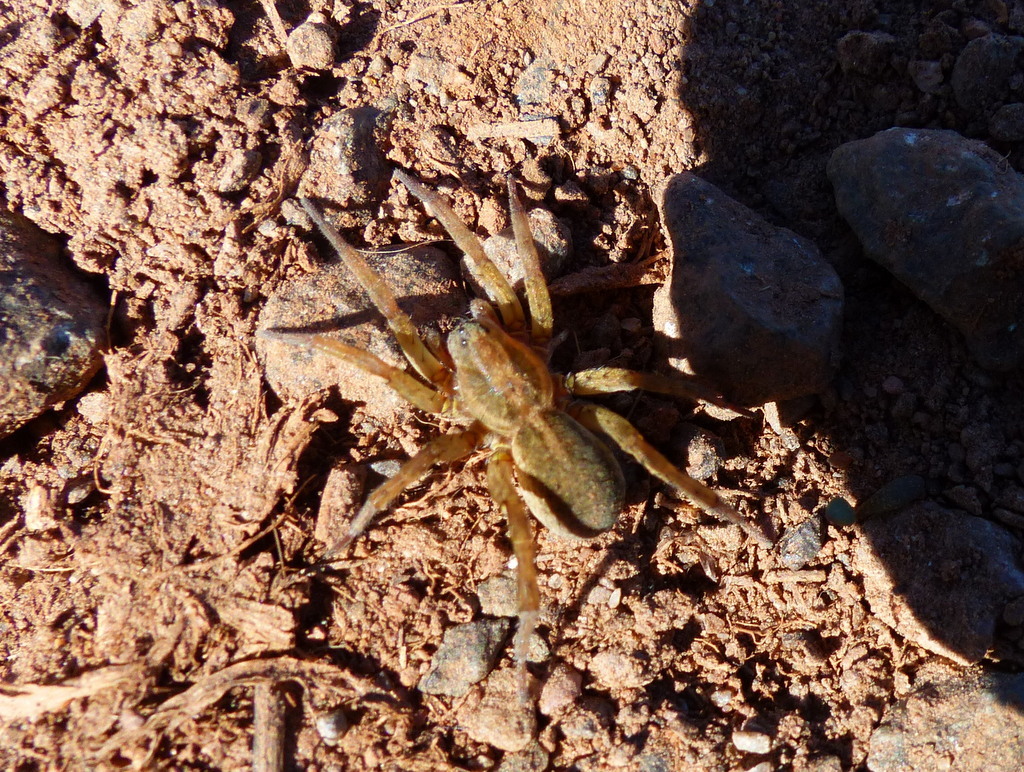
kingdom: Animalia
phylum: Arthropoda
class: Arachnida
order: Araneae
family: Lycosidae
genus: Trochosa
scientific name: Trochosa
